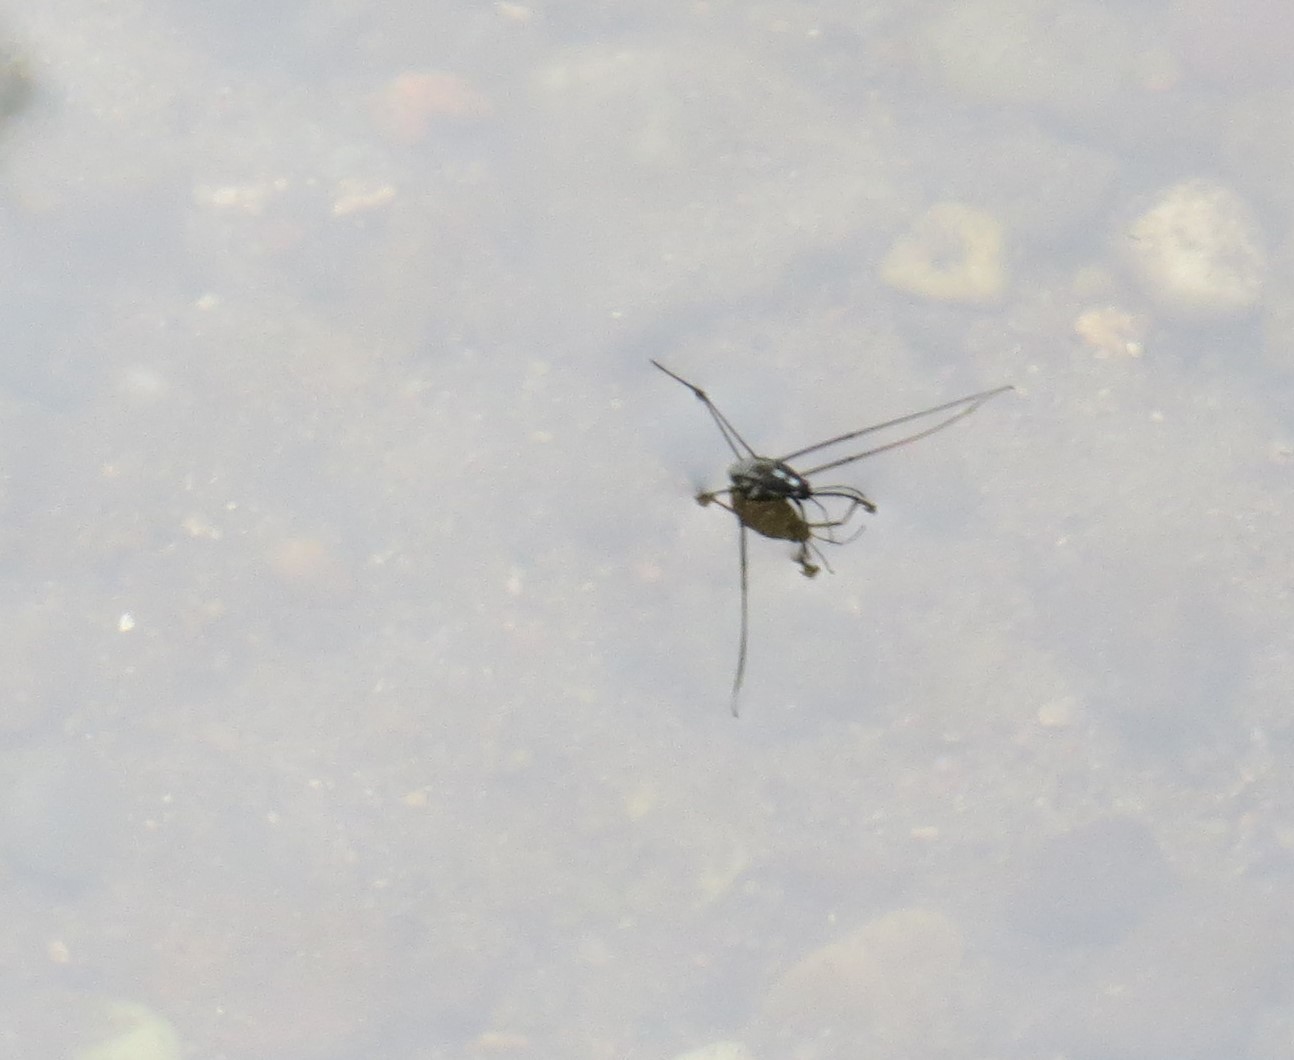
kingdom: Animalia
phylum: Arthropoda
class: Insecta
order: Hemiptera
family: Gerridae
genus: Metrobates
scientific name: Metrobates hesperius
